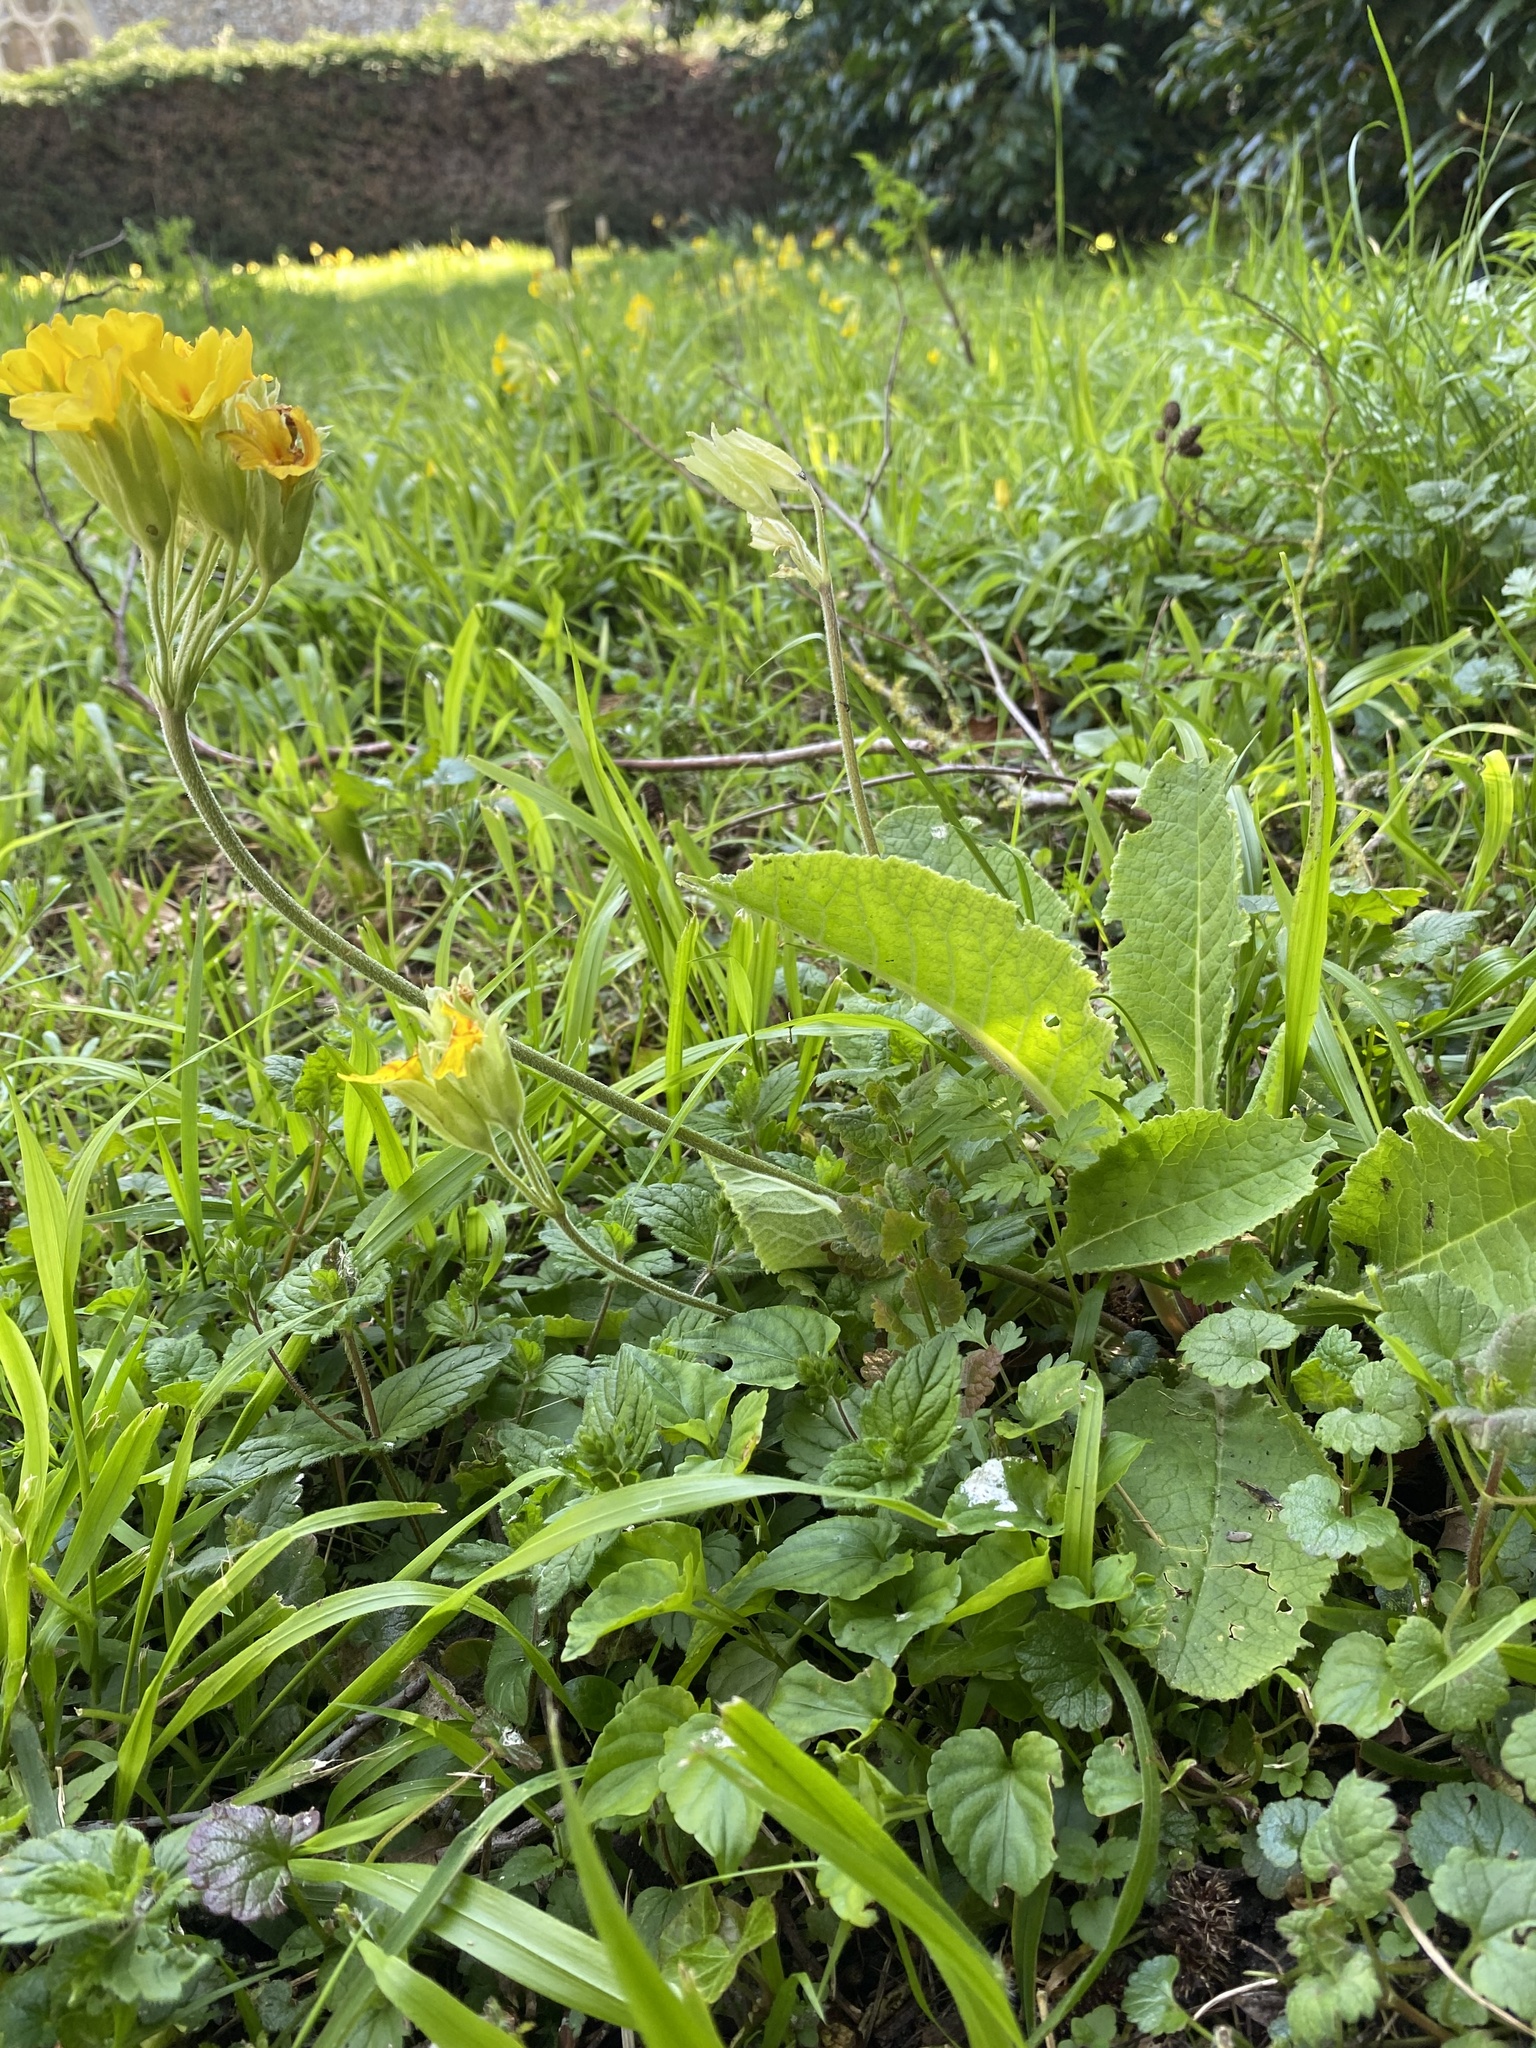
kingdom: Plantae
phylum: Tracheophyta
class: Magnoliopsida
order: Ericales
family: Primulaceae
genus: Primula
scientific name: Primula veris
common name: Cowslip
